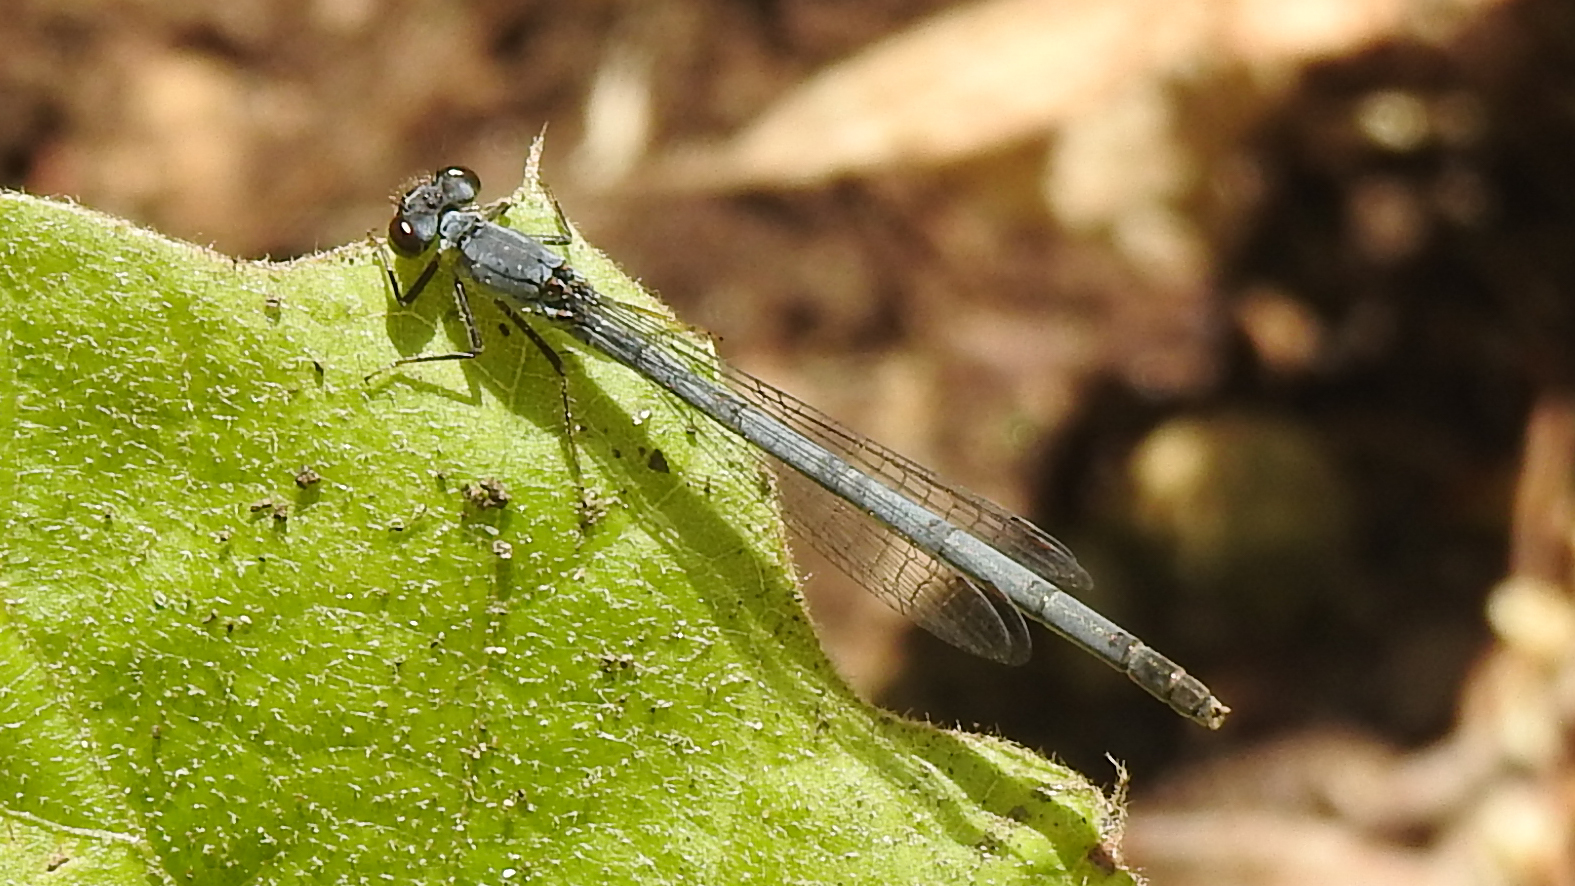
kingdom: Animalia
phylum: Arthropoda
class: Insecta
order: Odonata
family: Coenagrionidae
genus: Ischnura
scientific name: Ischnura posita
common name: Fragile forktail
